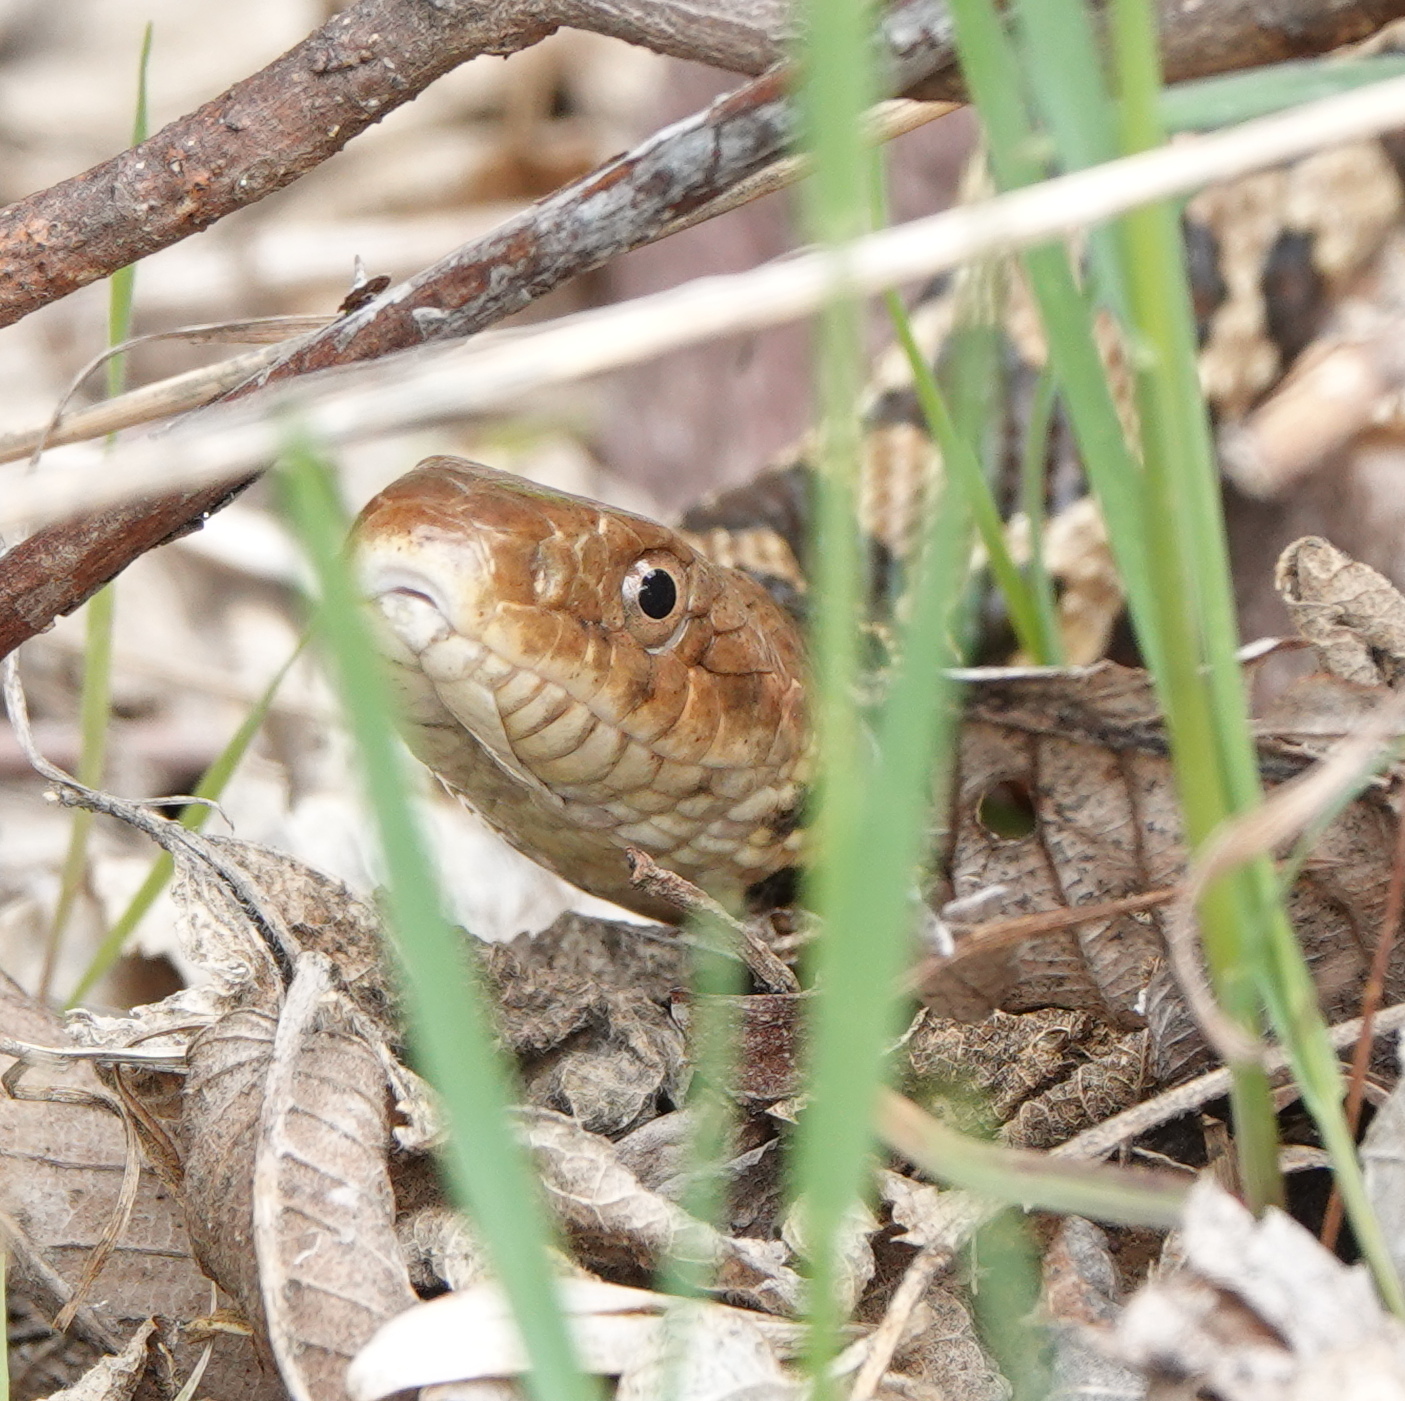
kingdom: Animalia
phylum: Chordata
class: Squamata
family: Colubridae
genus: Pantherophis
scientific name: Pantherophis ramspotti
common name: Western foxsnake
